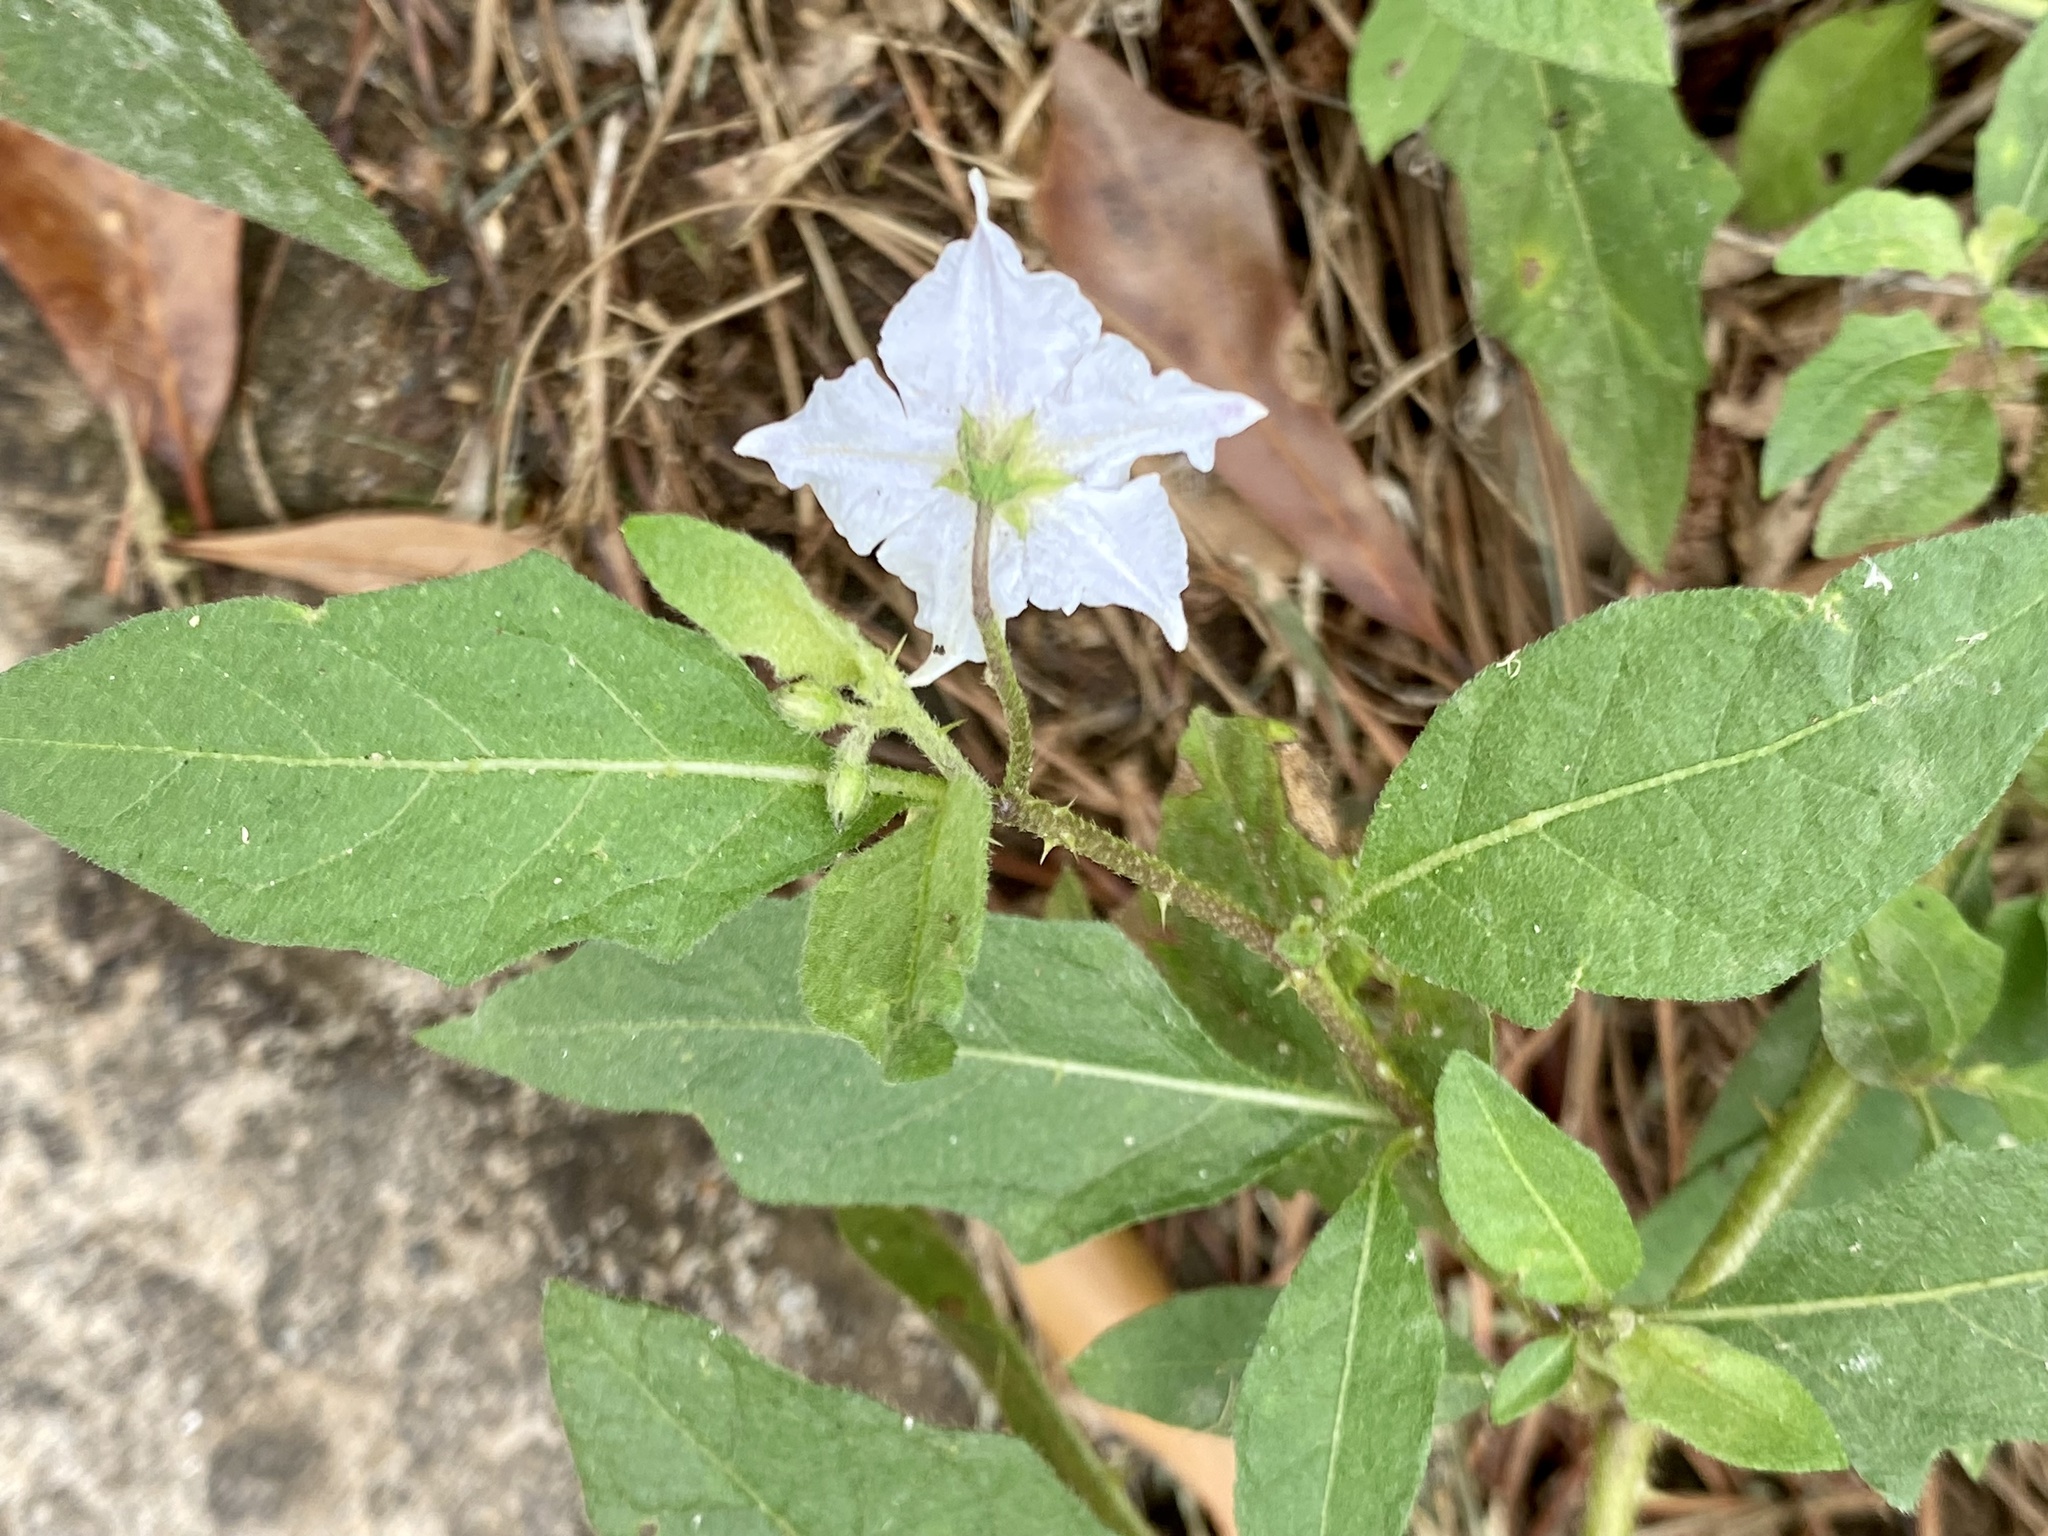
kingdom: Plantae
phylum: Tracheophyta
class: Magnoliopsida
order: Solanales
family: Solanaceae
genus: Solanum
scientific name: Solanum carolinense
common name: Horse-nettle
